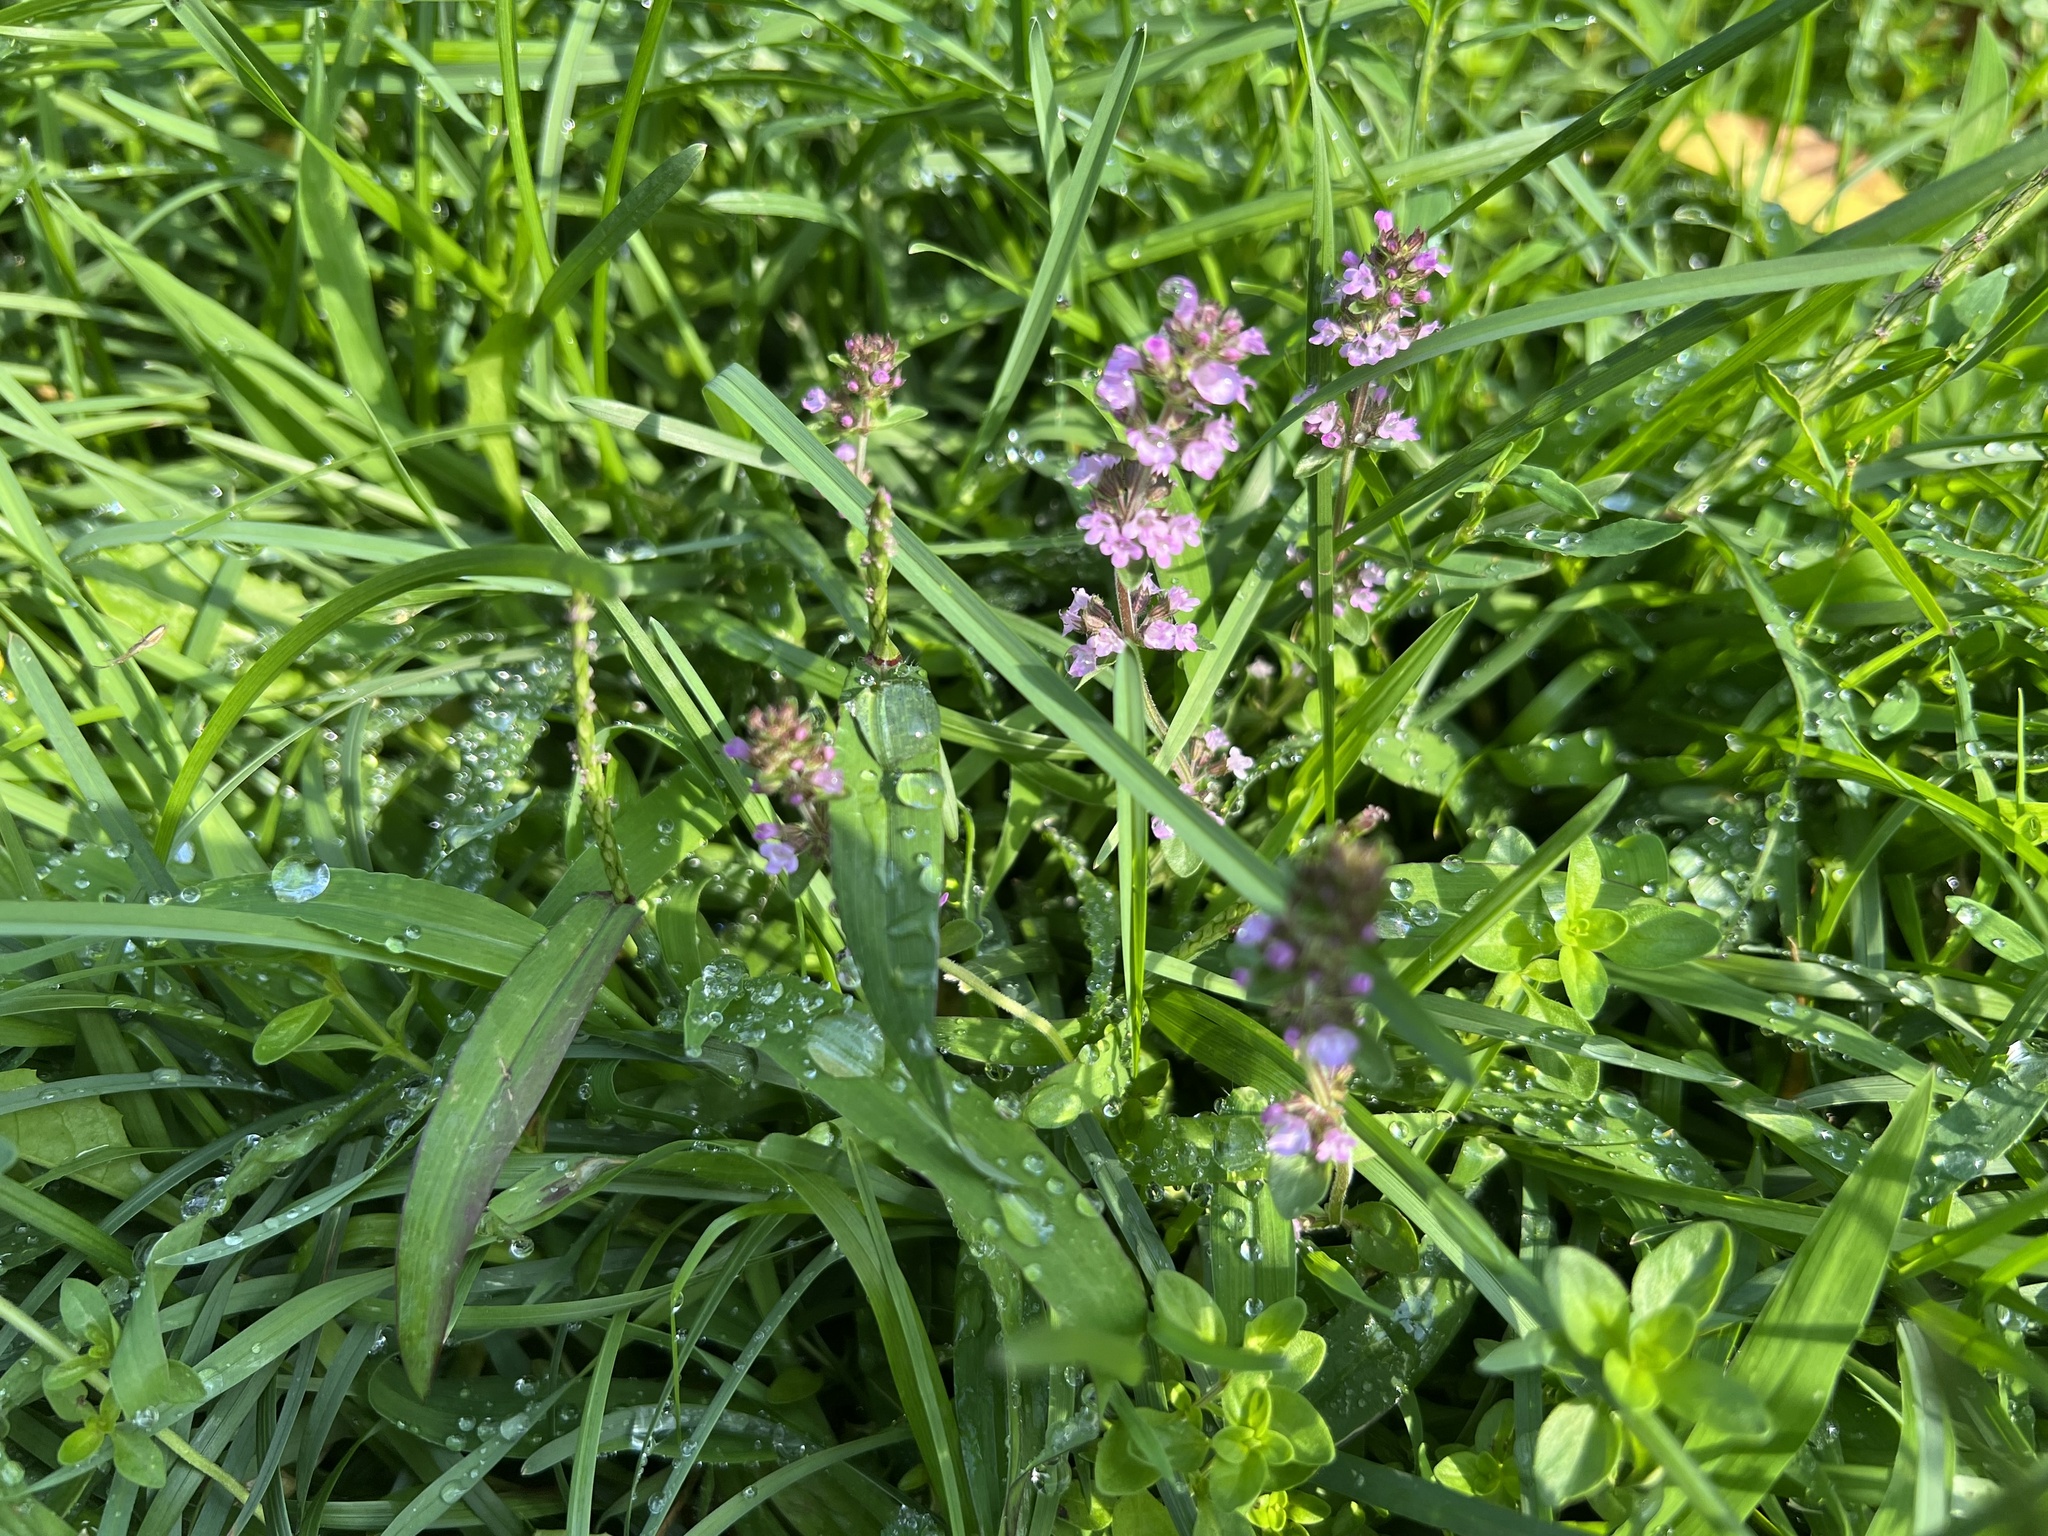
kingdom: Plantae
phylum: Tracheophyta
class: Magnoliopsida
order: Lamiales
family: Lamiaceae
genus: Thymus
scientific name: Thymus pulegioides
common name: Large thyme
